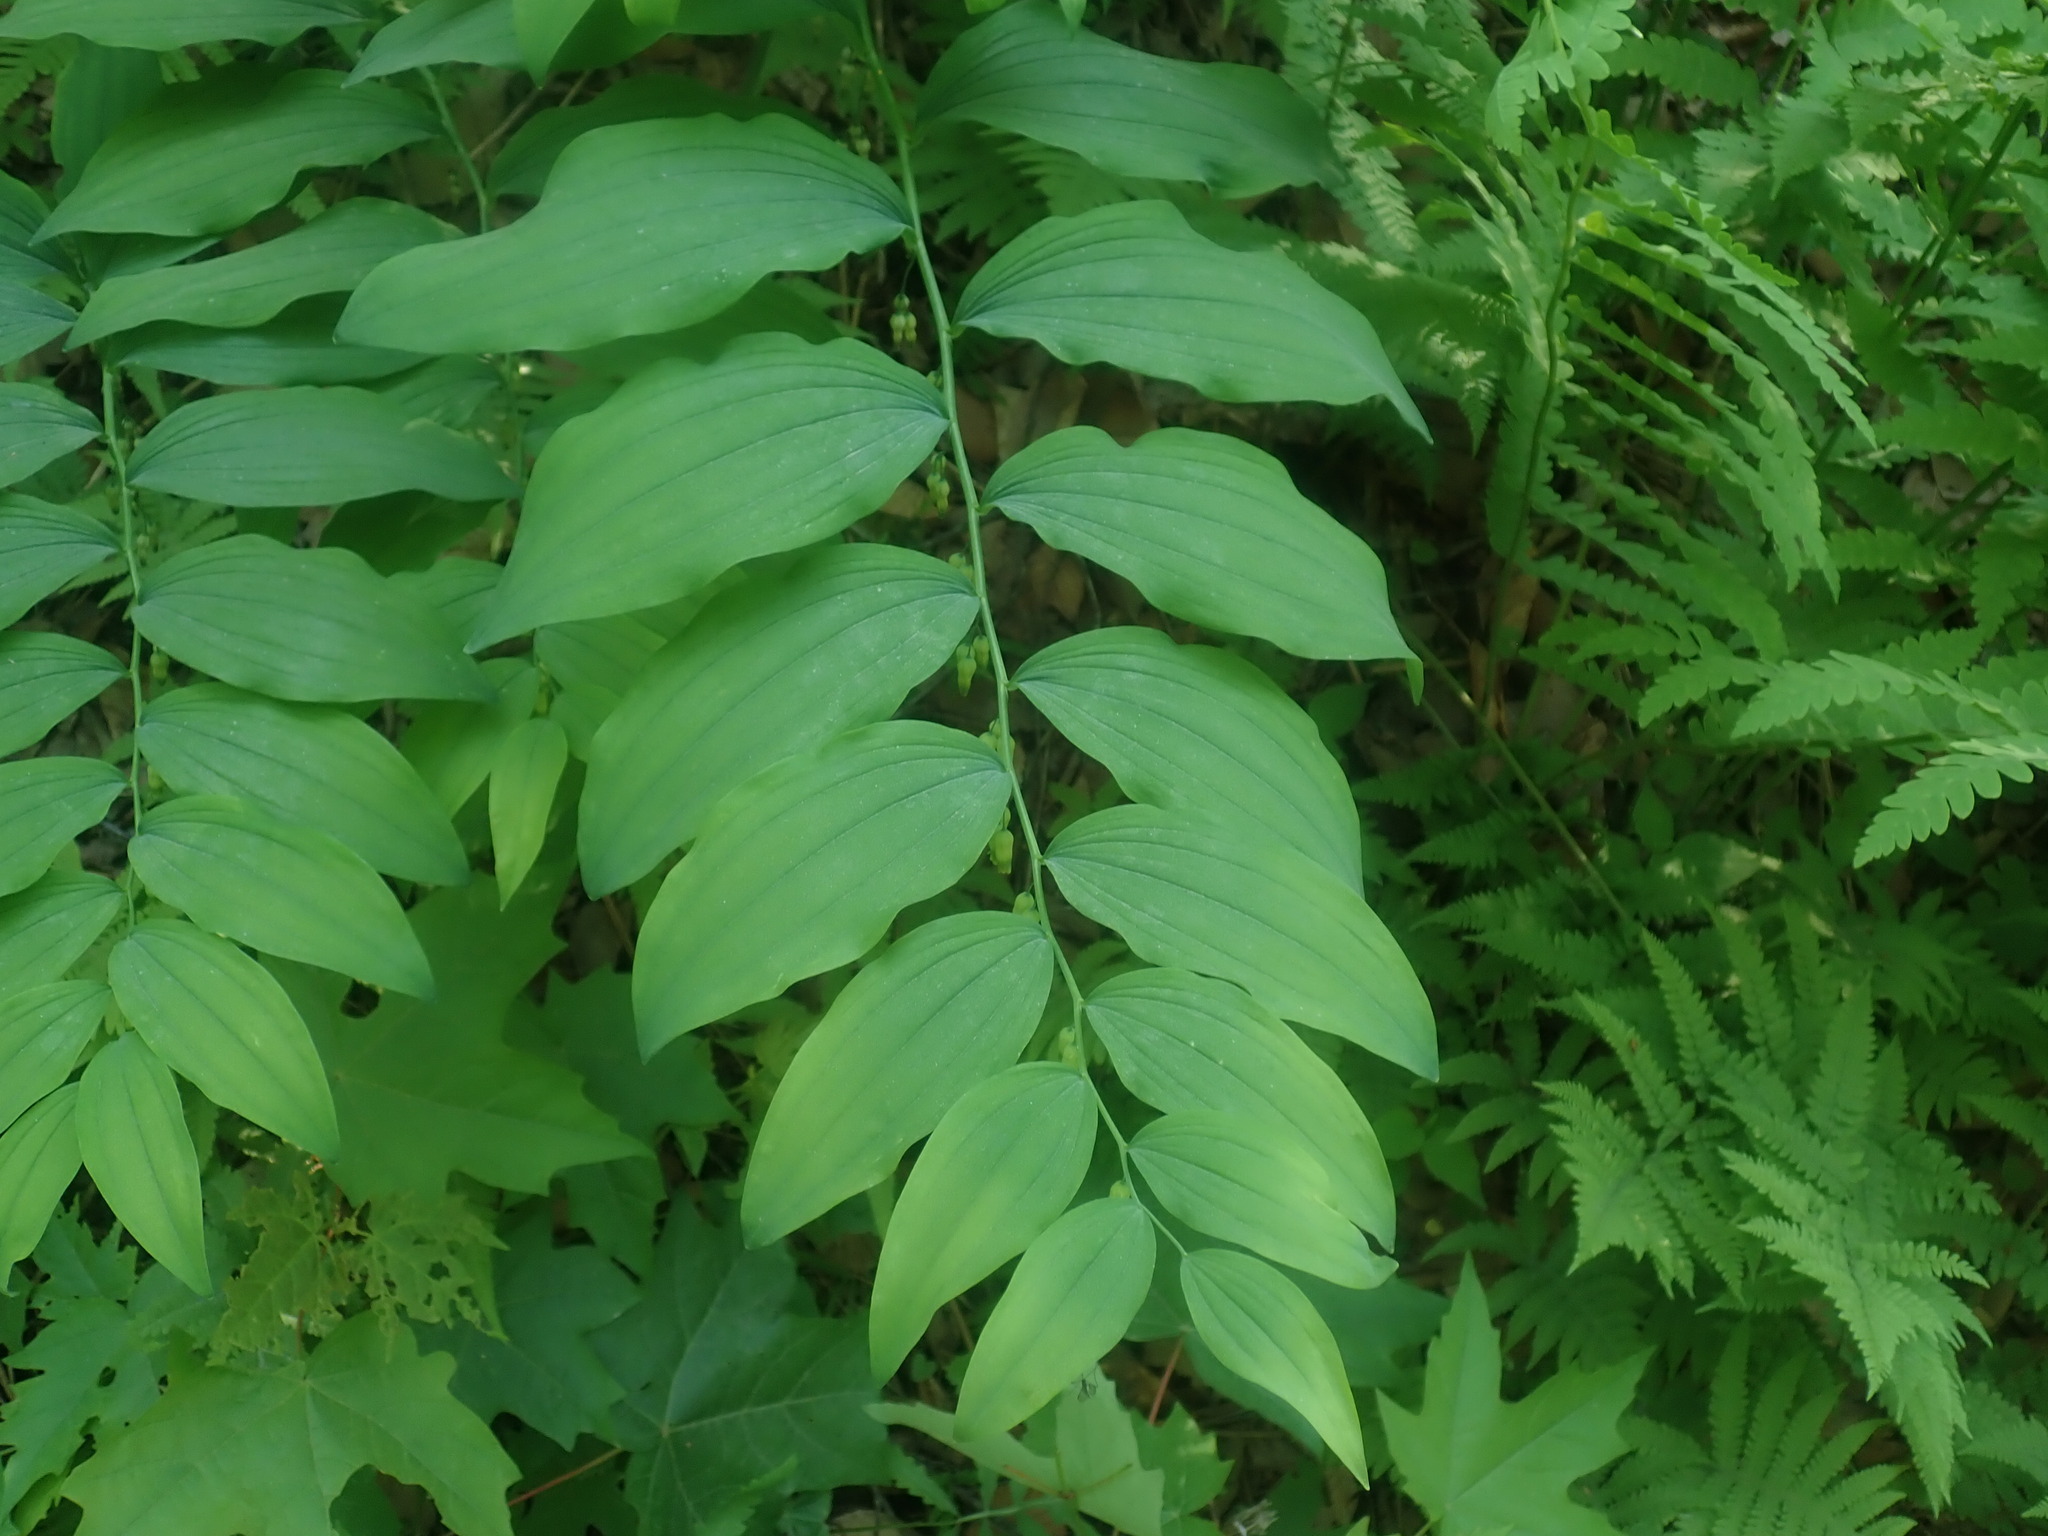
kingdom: Plantae
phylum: Tracheophyta
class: Liliopsida
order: Asparagales
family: Asparagaceae
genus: Polygonatum
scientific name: Polygonatum pubescens
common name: Downy solomon's seal
